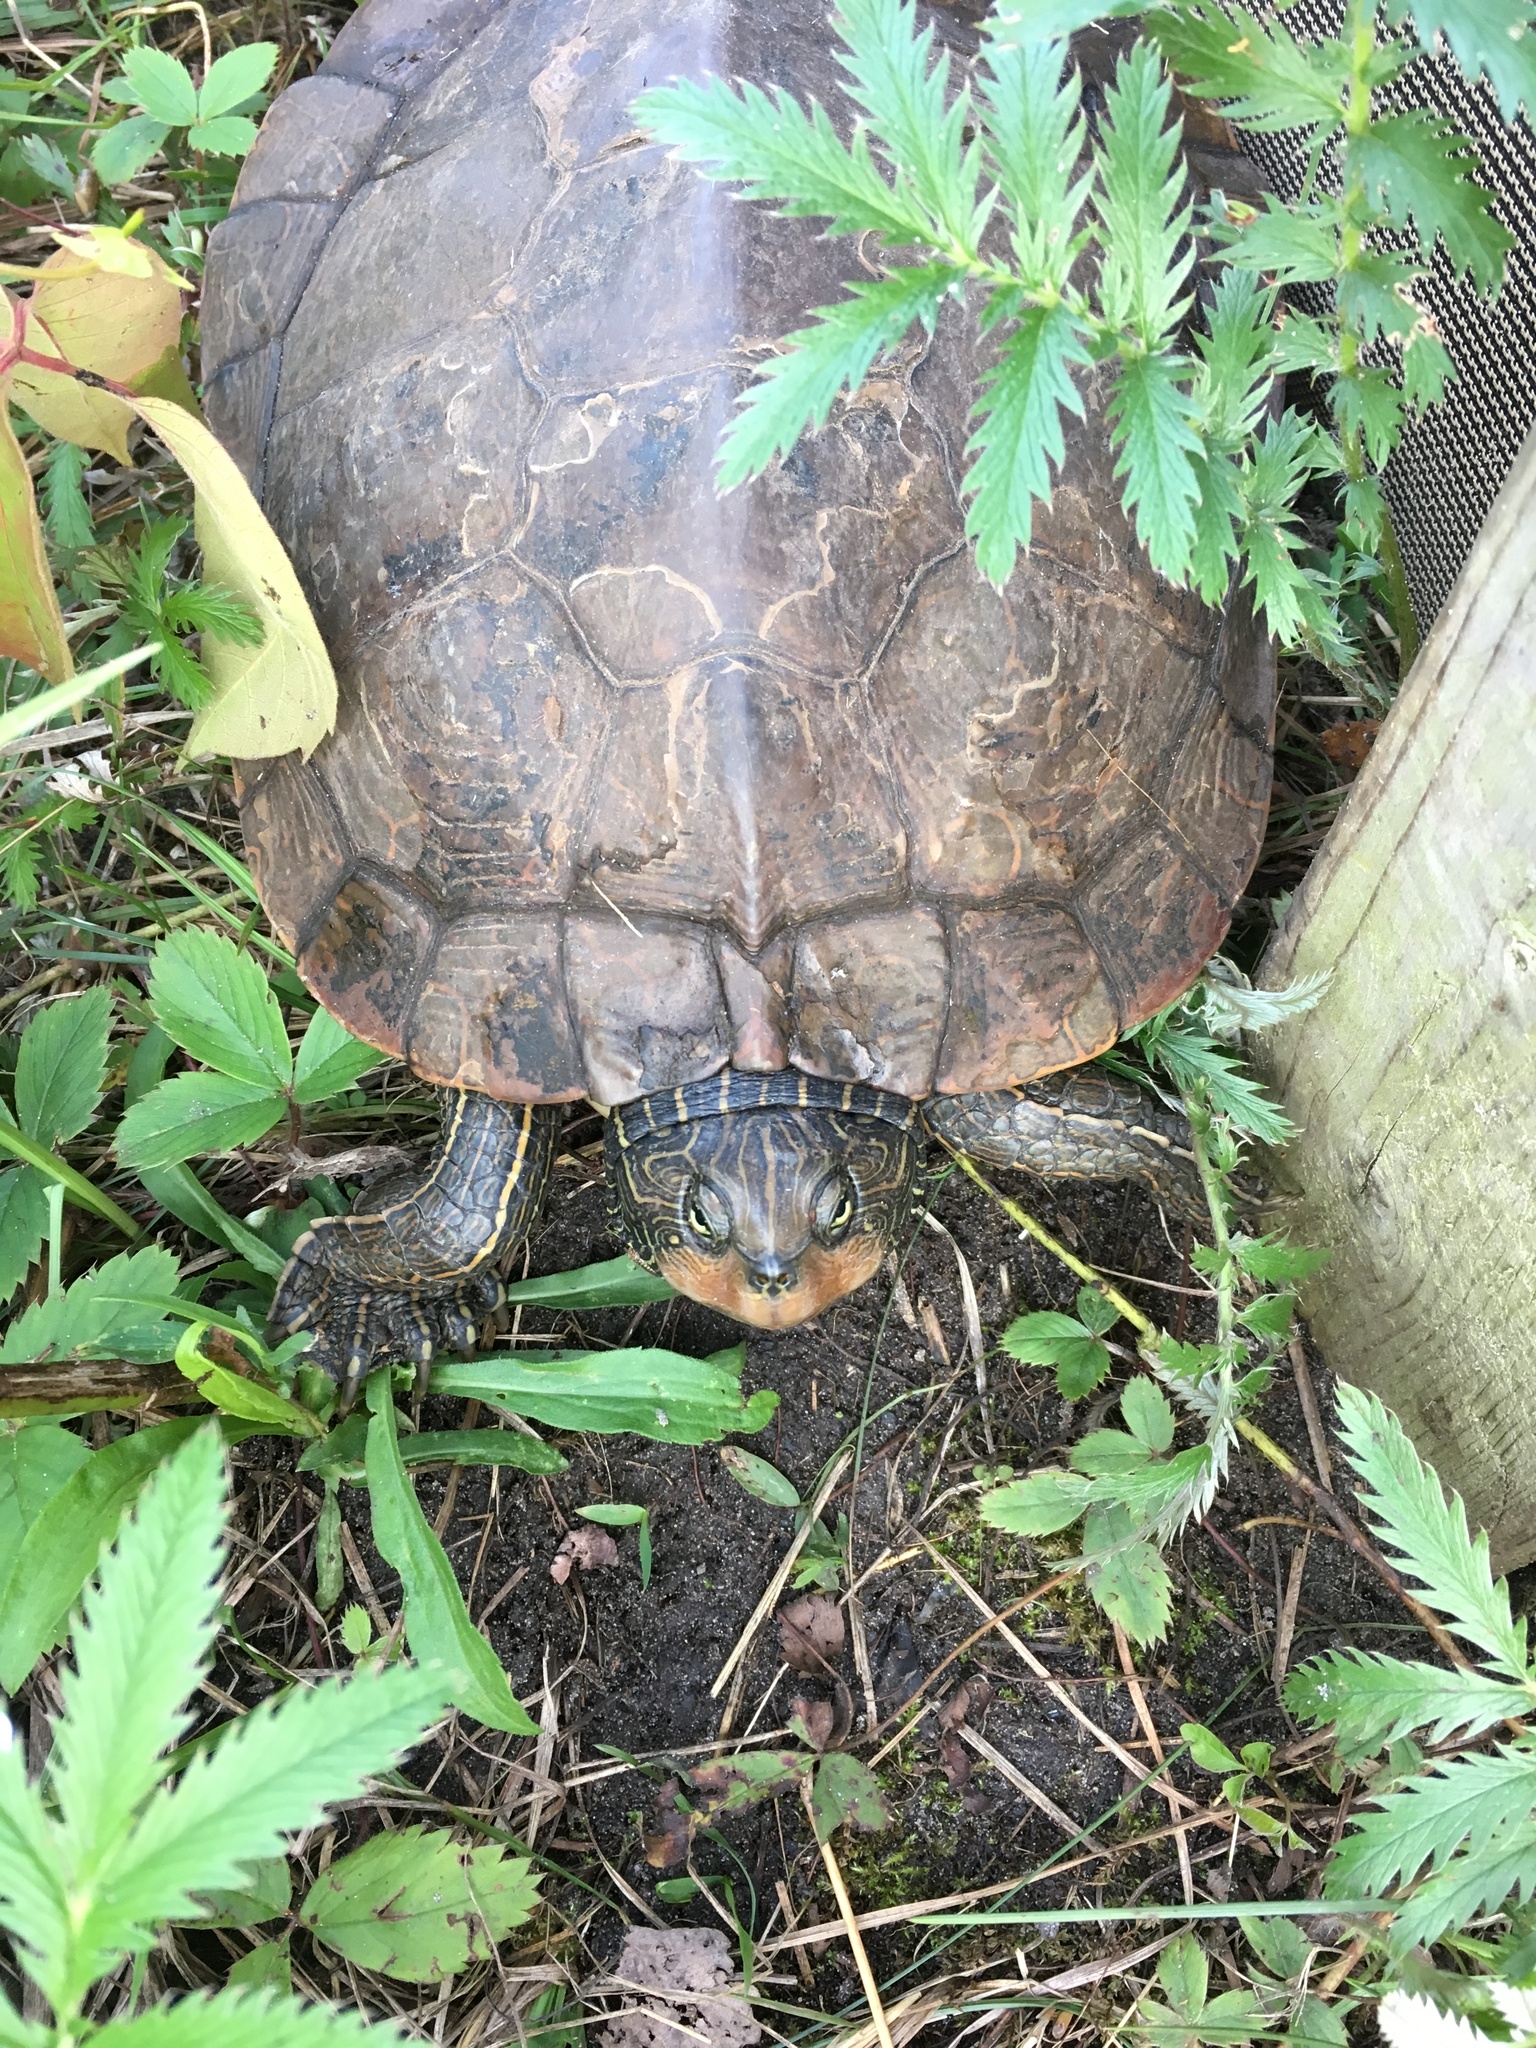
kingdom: Animalia
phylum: Chordata
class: Testudines
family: Emydidae
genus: Graptemys
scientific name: Graptemys geographica
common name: Common map turtle
